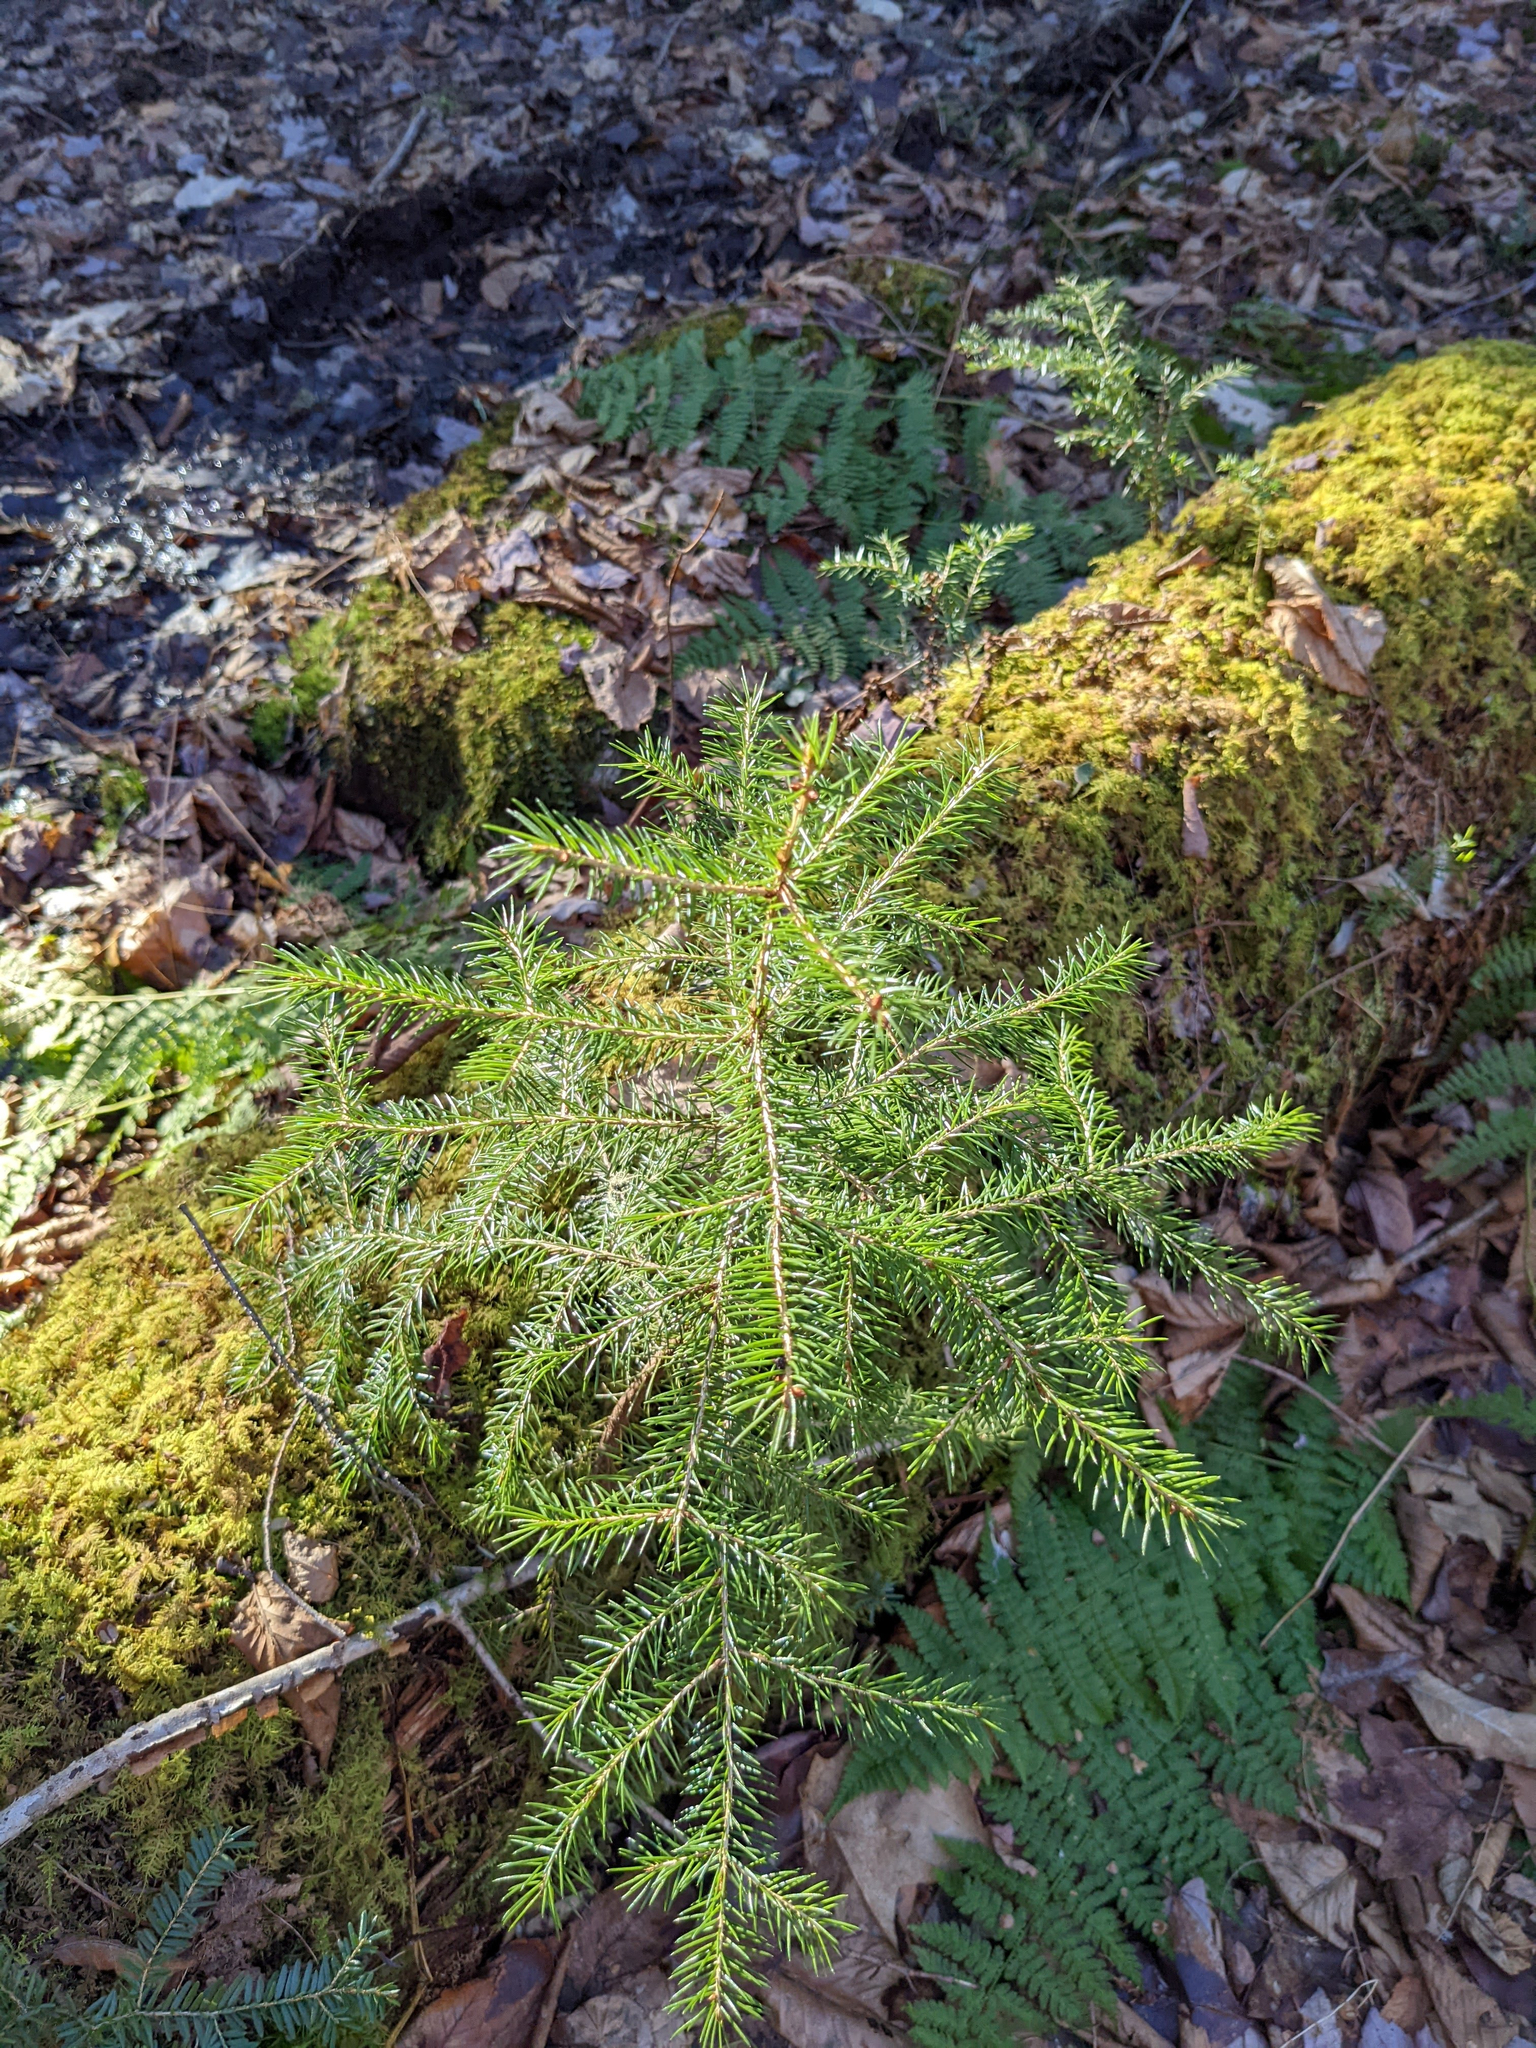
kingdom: Plantae
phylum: Tracheophyta
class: Pinopsida
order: Pinales
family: Pinaceae
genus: Picea
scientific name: Picea rubens
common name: Red spruce
